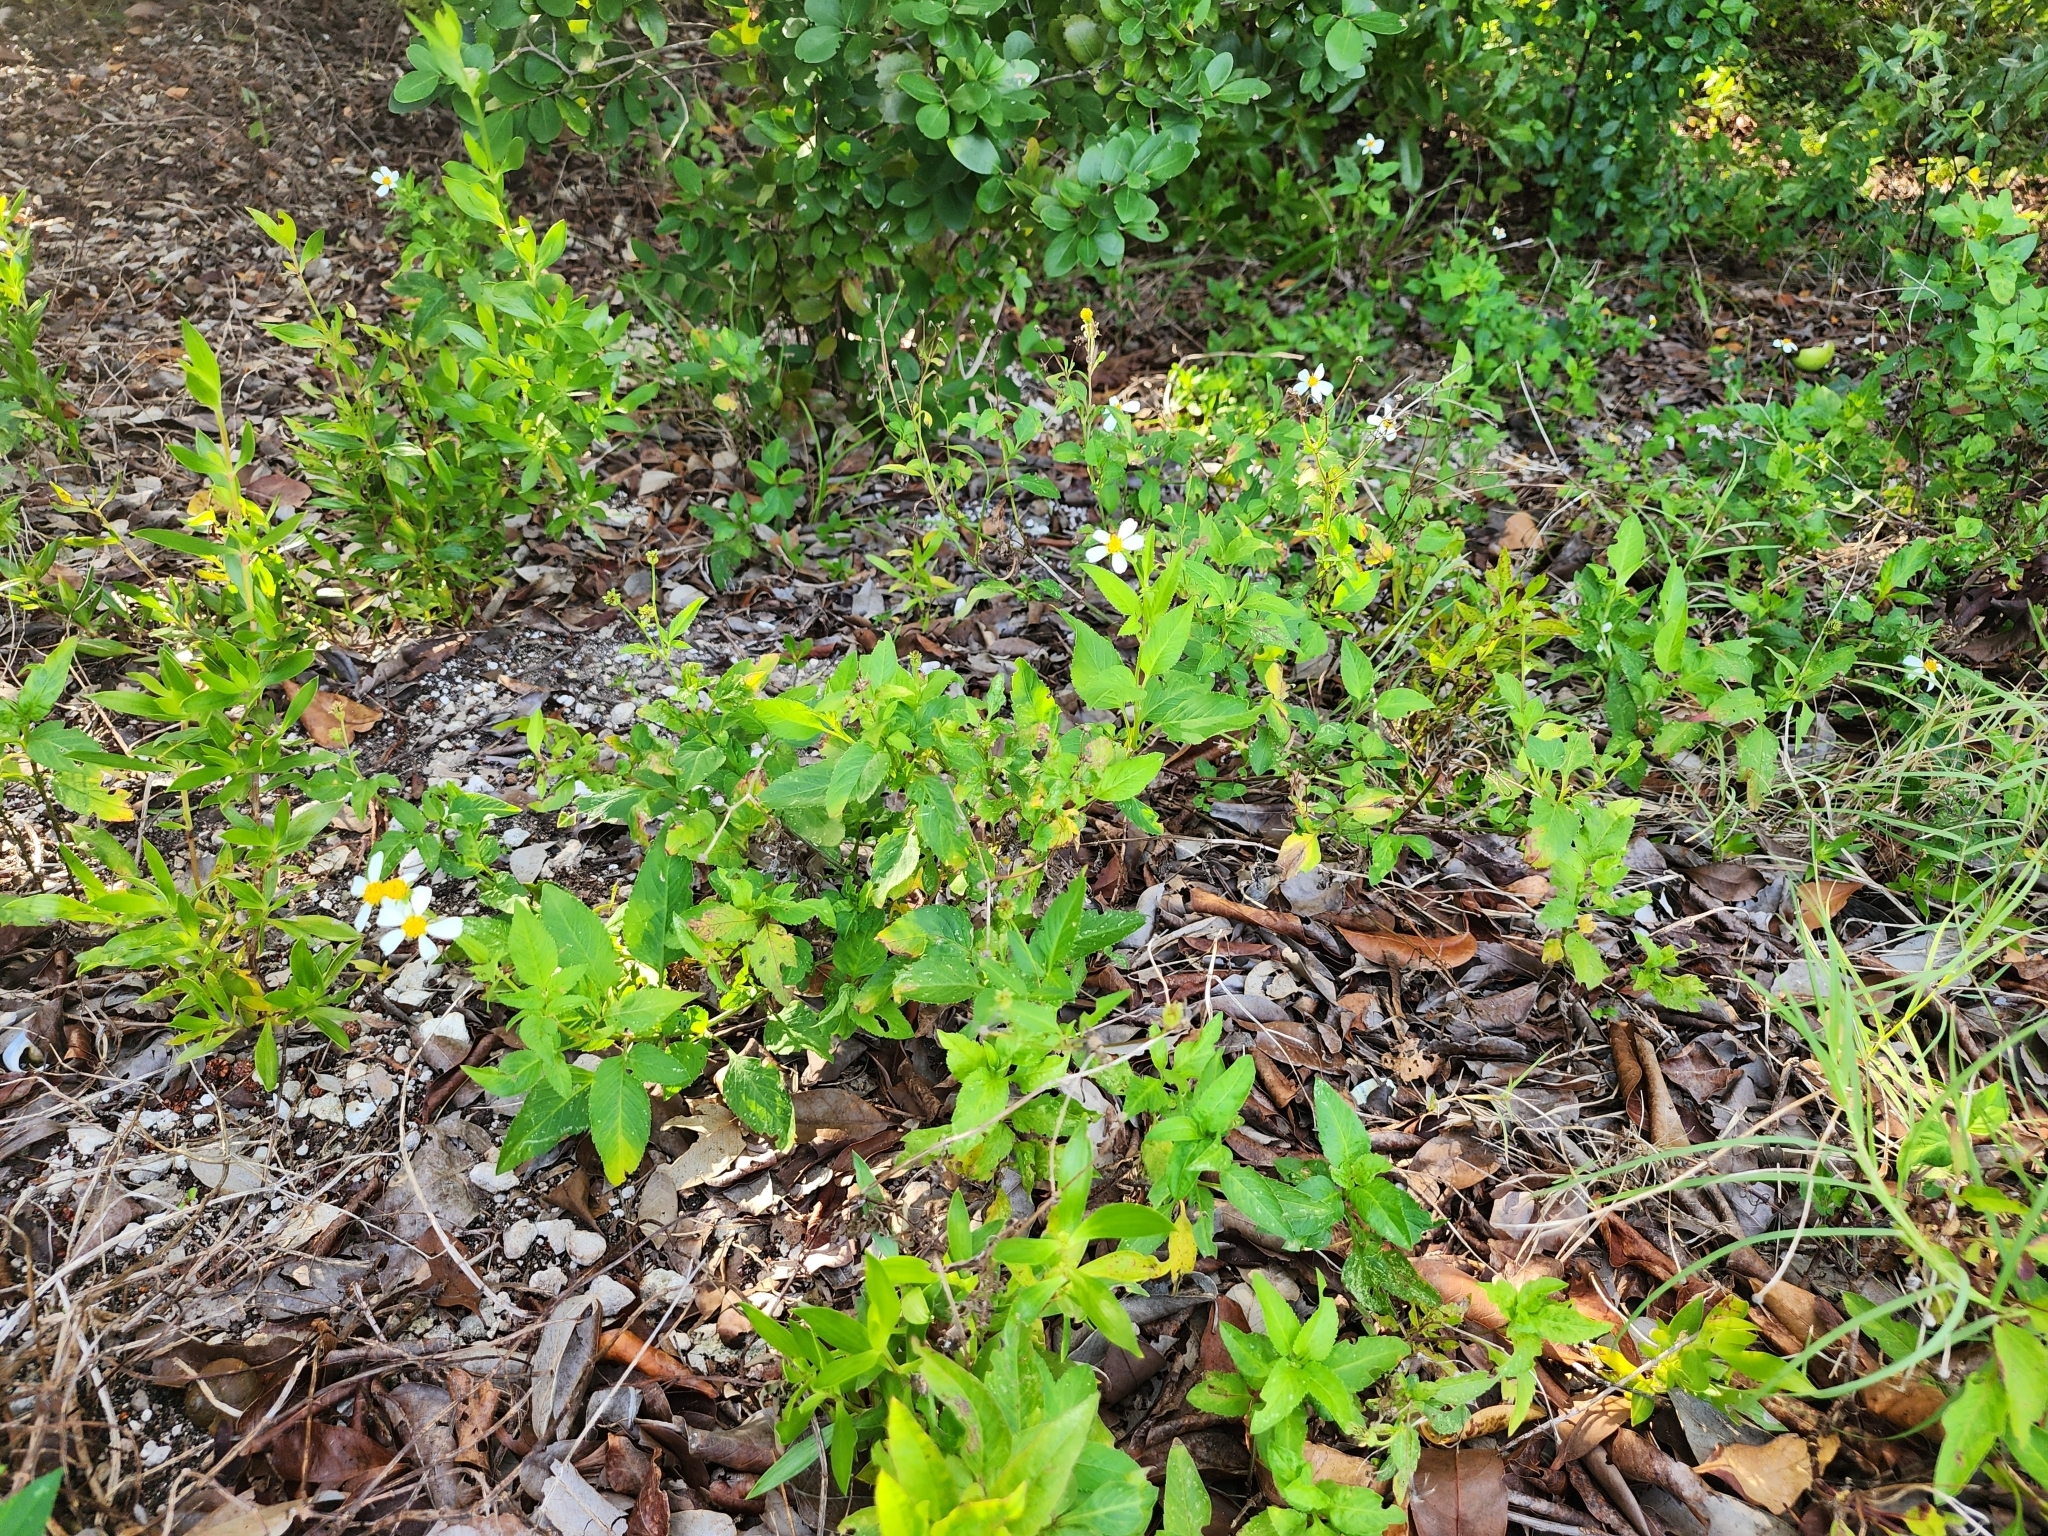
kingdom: Plantae
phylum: Tracheophyta
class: Magnoliopsida
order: Asterales
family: Asteraceae
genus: Bidens
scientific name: Bidens alba
